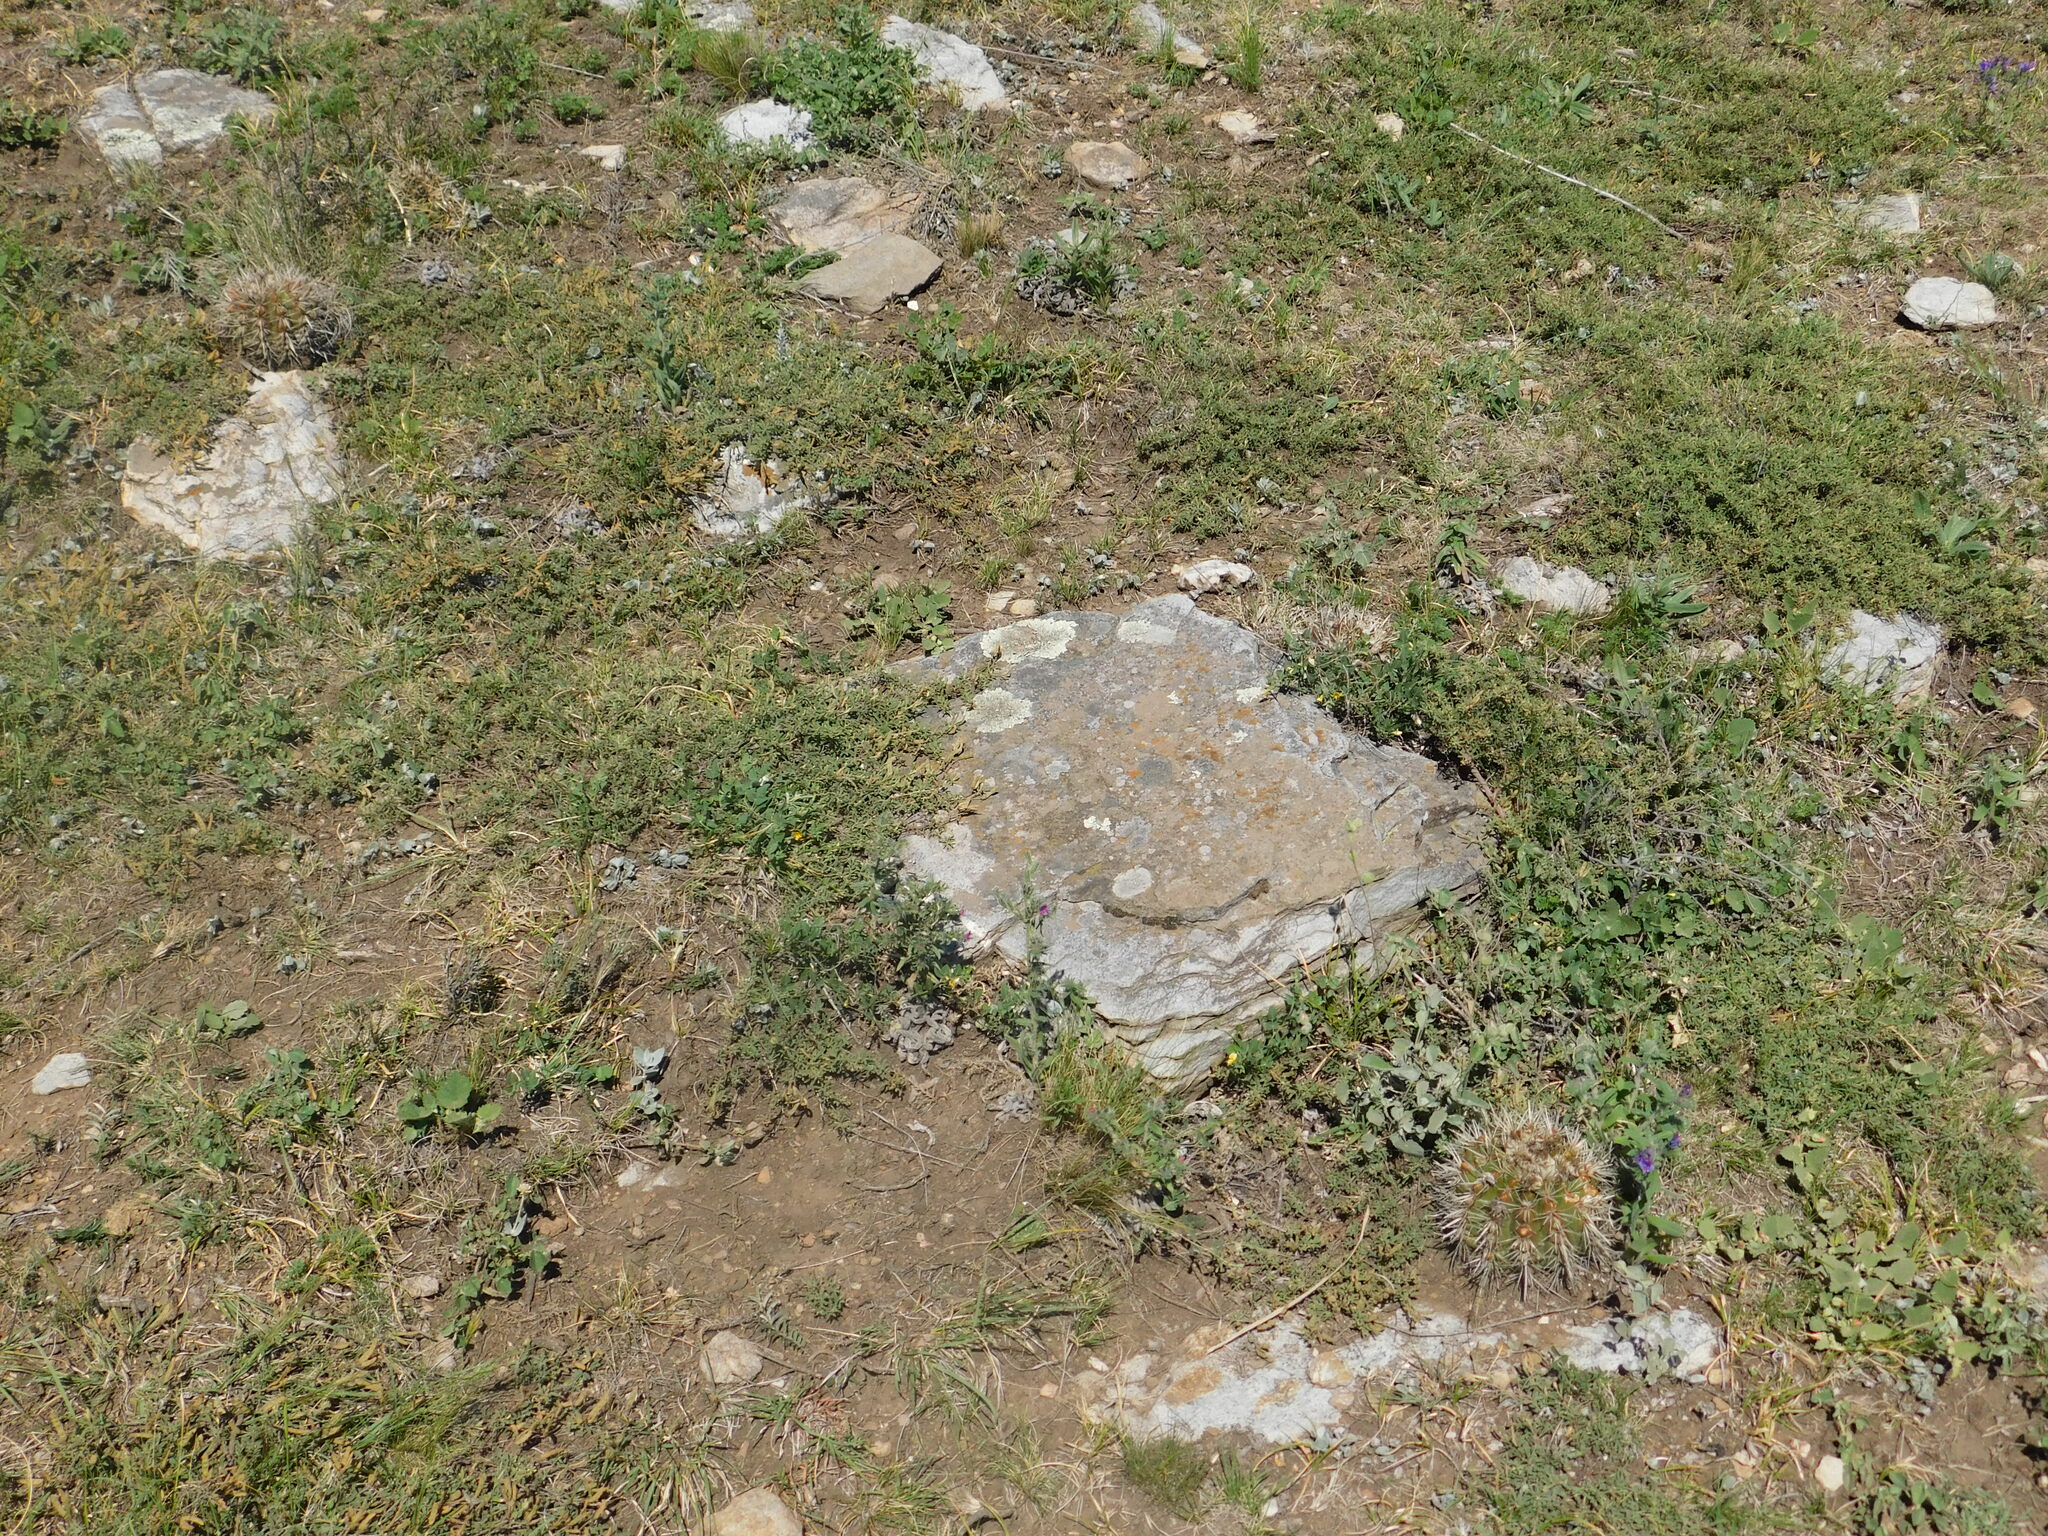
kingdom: Plantae
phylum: Tracheophyta
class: Magnoliopsida
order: Caryophyllales
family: Cactaceae
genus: Parodia
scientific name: Parodia mammulosa
